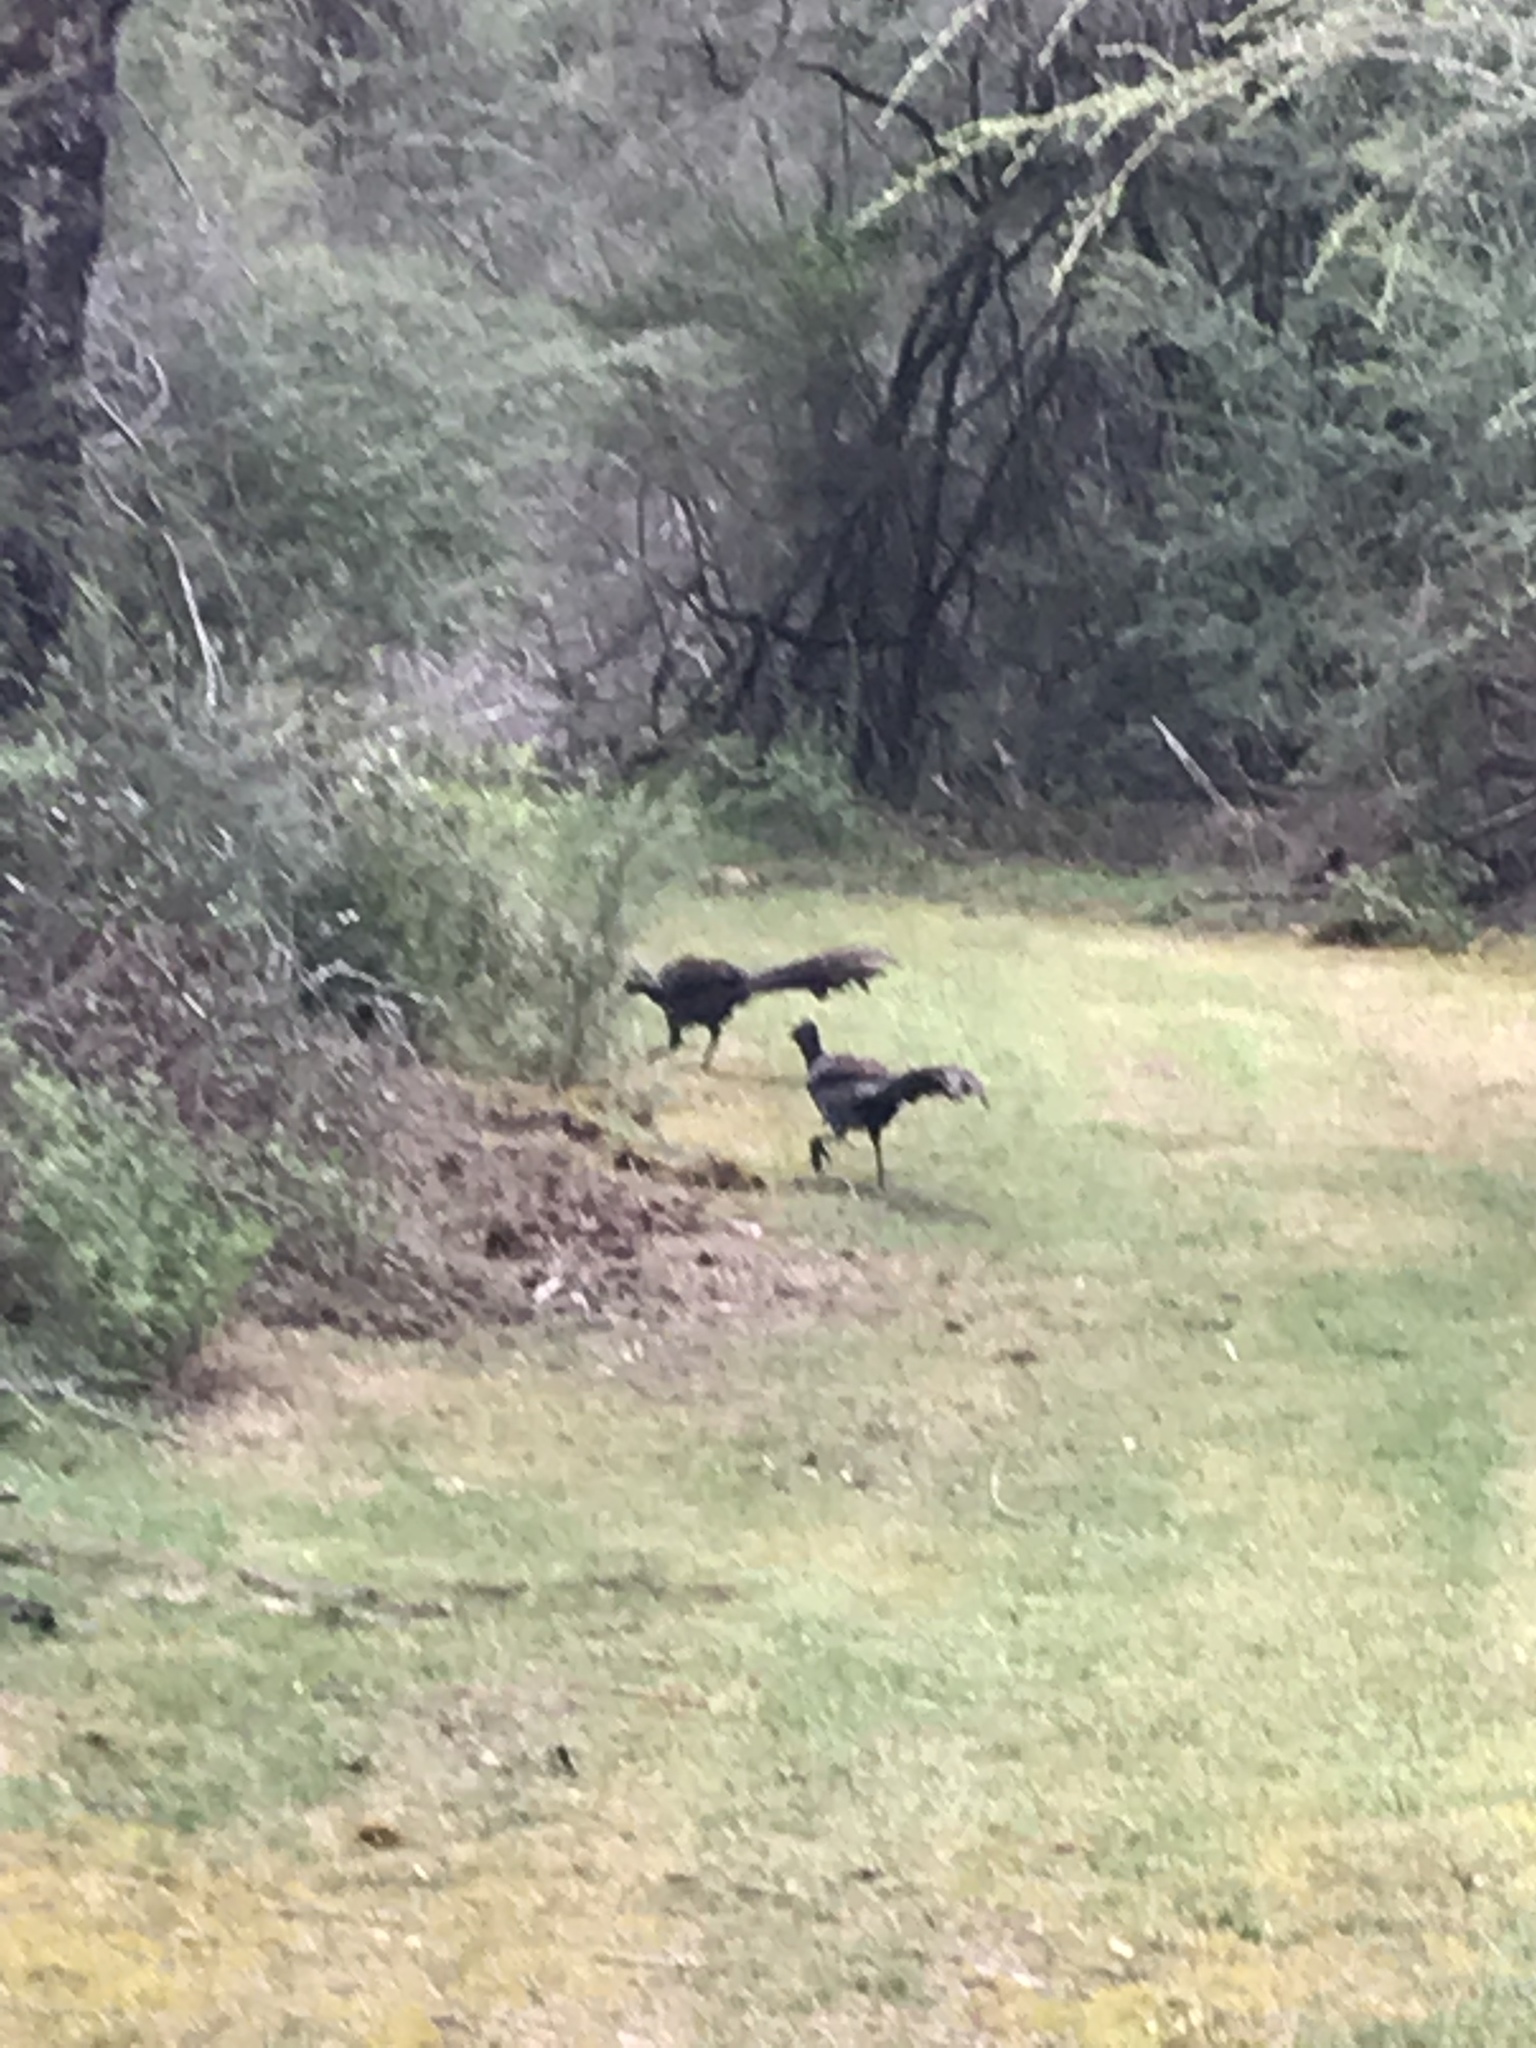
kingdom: Animalia
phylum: Chordata
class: Aves
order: Passeriformes
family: Menuridae
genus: Menura
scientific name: Menura novaehollandiae
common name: Superb lyrebird
